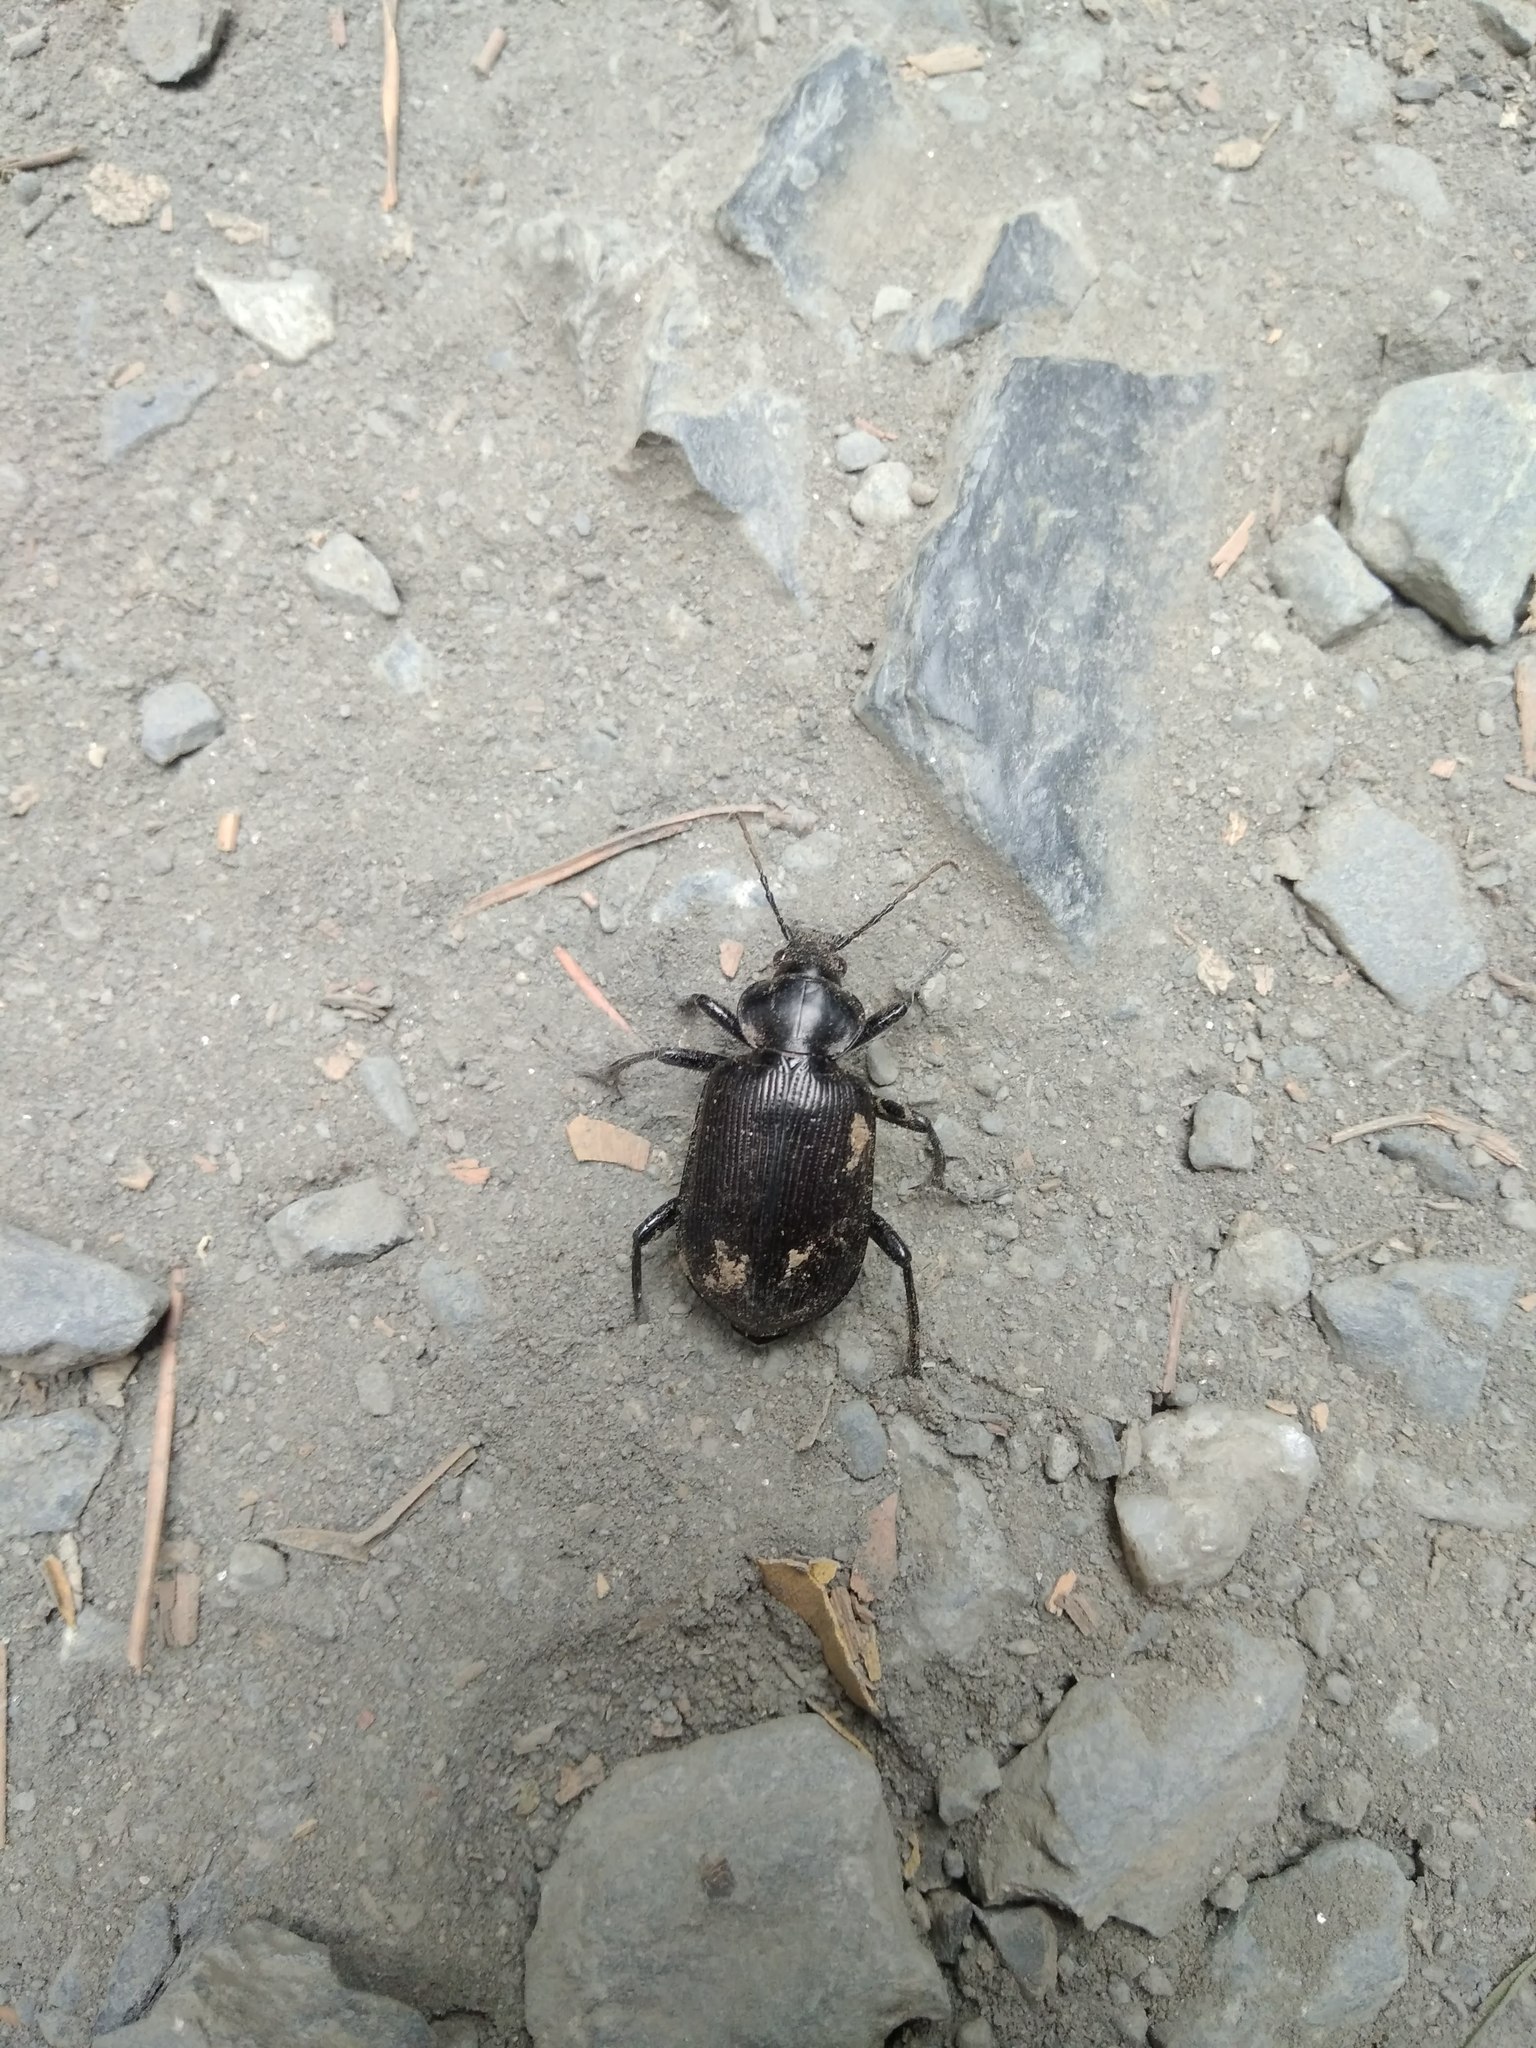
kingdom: Animalia
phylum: Arthropoda
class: Insecta
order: Coleoptera
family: Carabidae
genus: Calosoma
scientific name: Calosoma vagans
